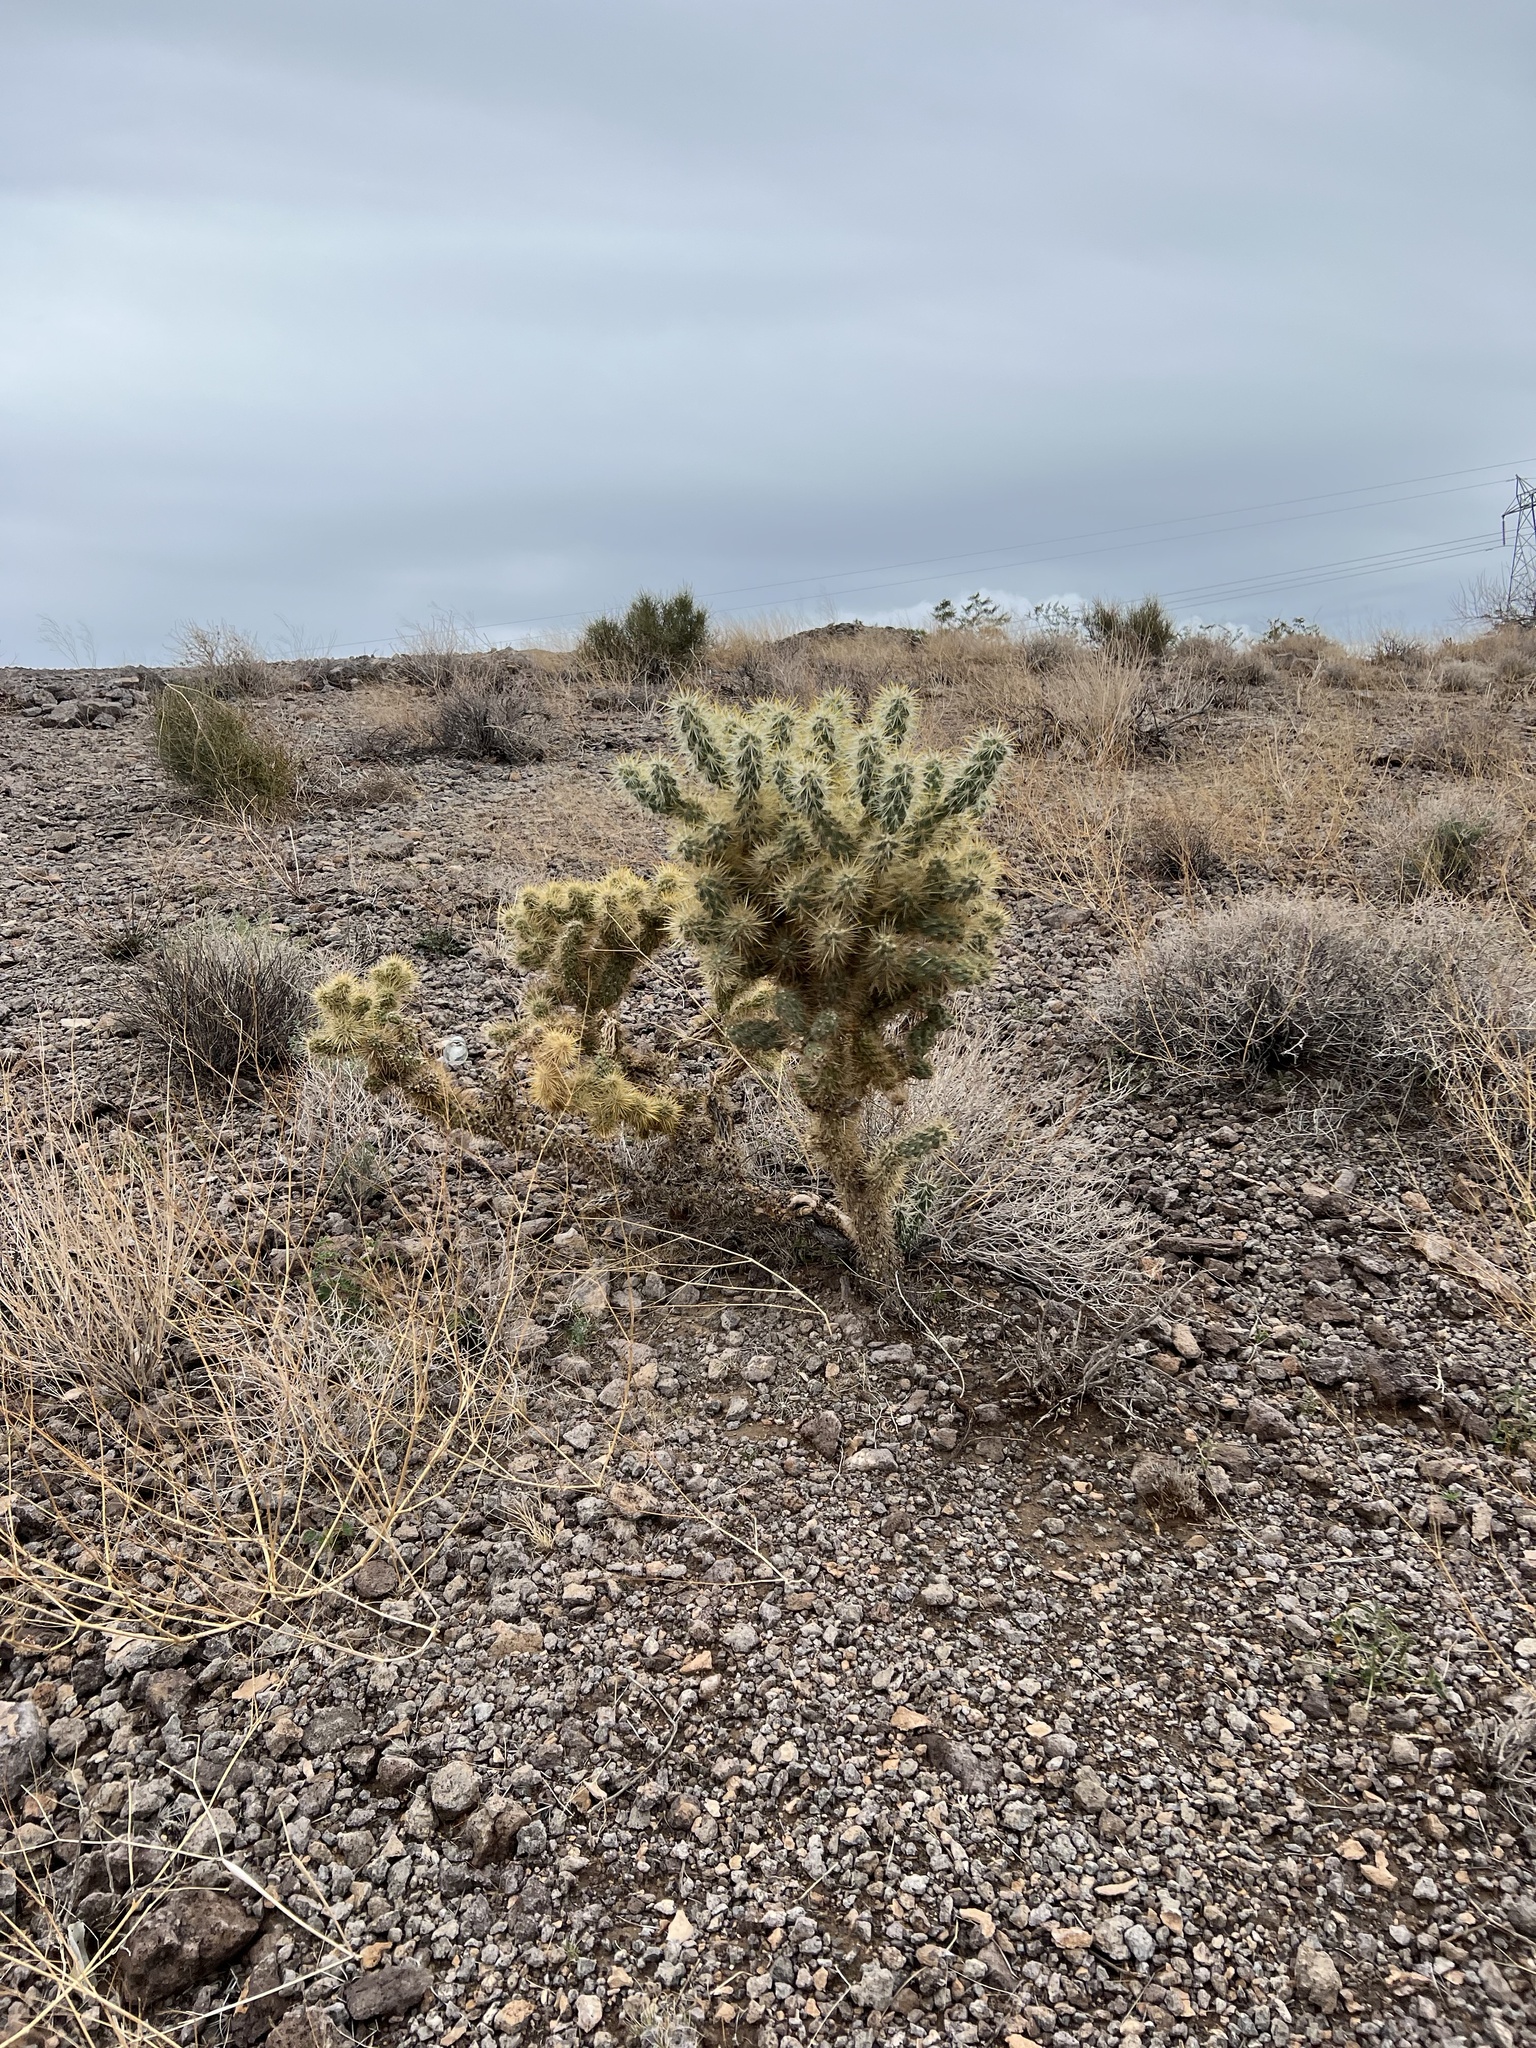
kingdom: Plantae
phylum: Tracheophyta
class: Magnoliopsida
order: Caryophyllales
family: Cactaceae
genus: Cylindropuntia
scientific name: Cylindropuntia echinocarpa
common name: Ground cholla
